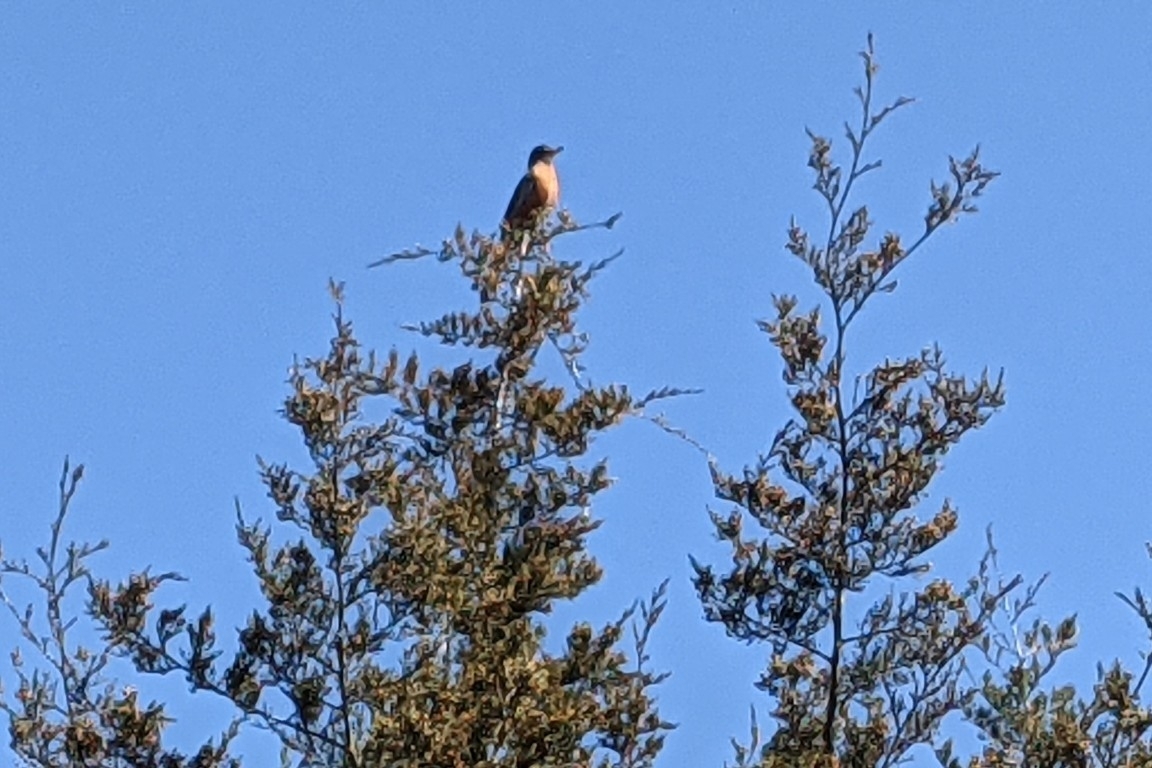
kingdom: Animalia
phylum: Chordata
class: Aves
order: Passeriformes
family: Turdidae
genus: Turdus
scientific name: Turdus migratorius
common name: American robin
